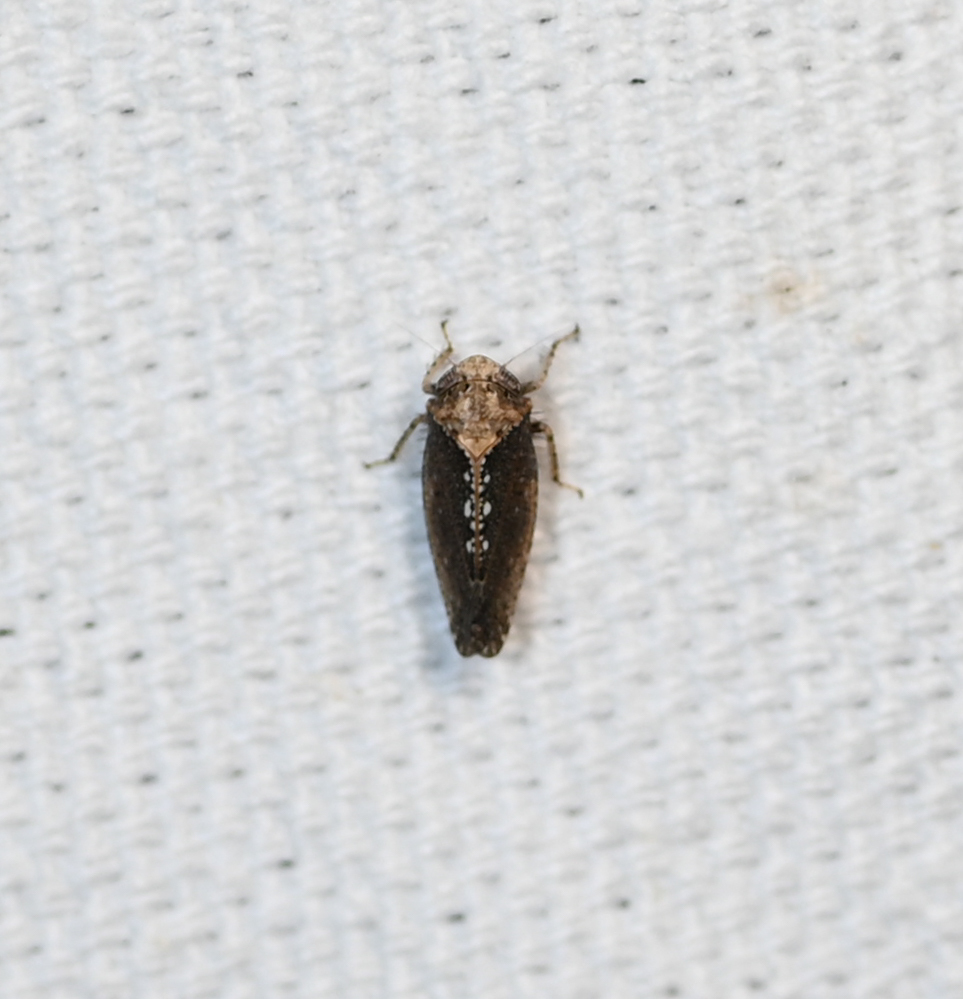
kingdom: Animalia
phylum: Arthropoda
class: Insecta
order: Hemiptera
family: Cicadellidae
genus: Excultanus
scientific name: Excultanus excultus
